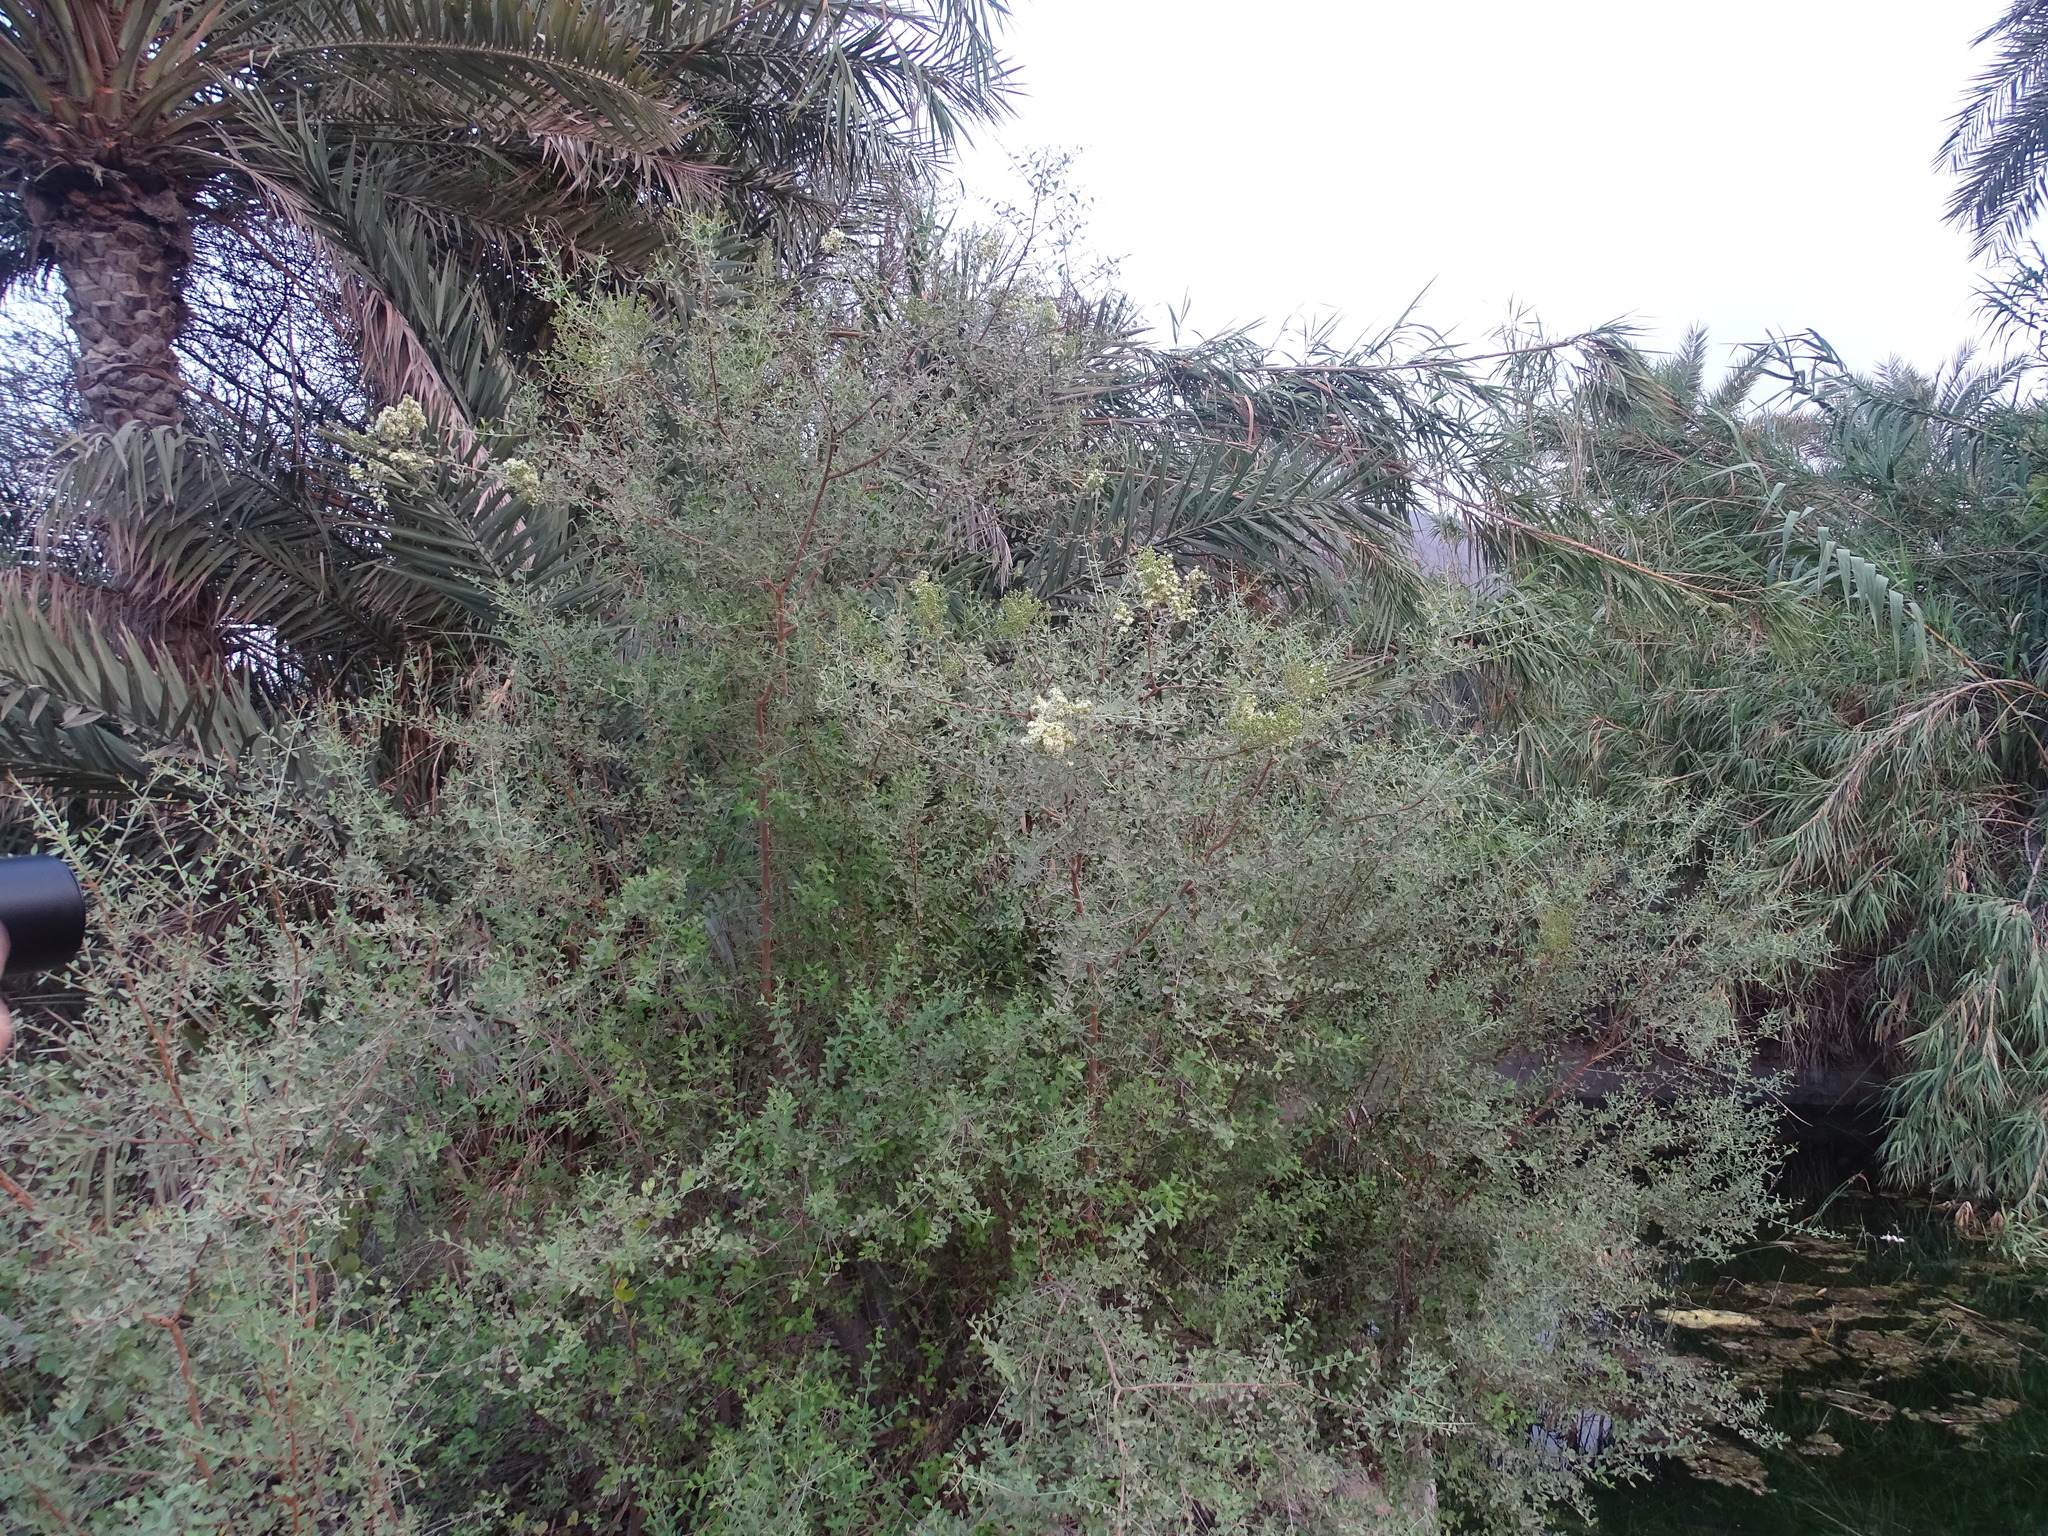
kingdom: Plantae
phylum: Tracheophyta
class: Magnoliopsida
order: Myrtales
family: Lythraceae
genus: Lawsonia
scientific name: Lawsonia inermis
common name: Henna
